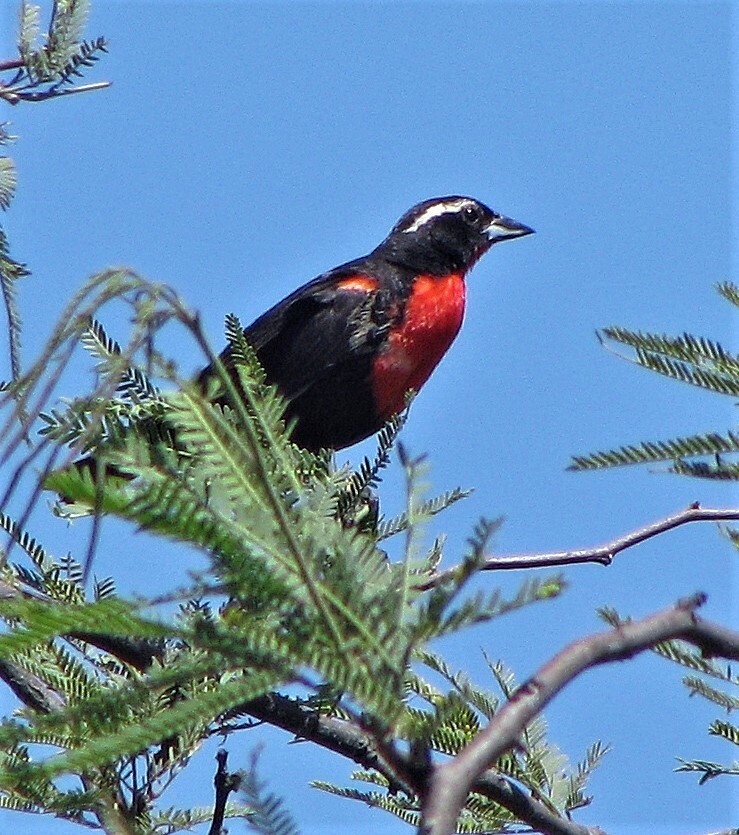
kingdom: Animalia
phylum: Chordata
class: Aves
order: Passeriformes
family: Icteridae
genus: Sturnella
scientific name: Sturnella superciliaris
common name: White-browed blackbird
